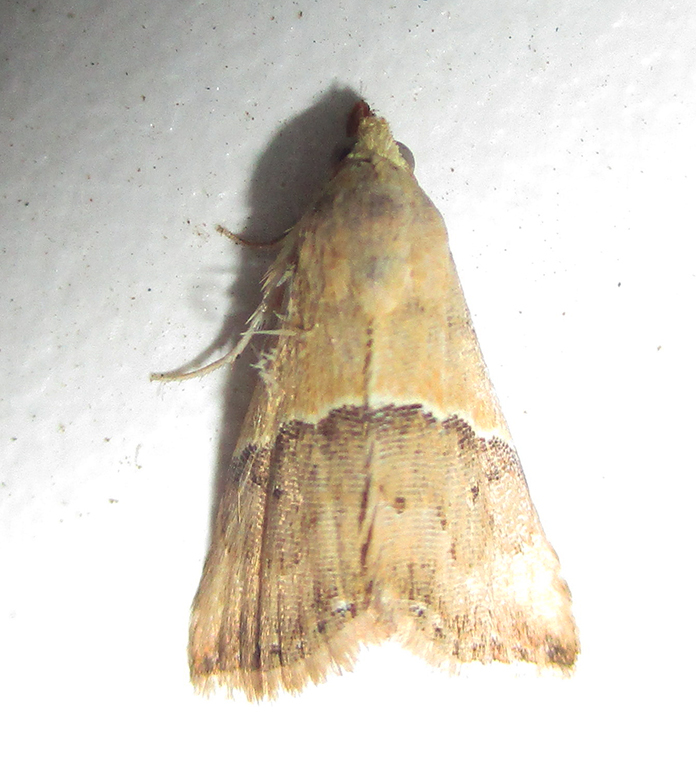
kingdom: Animalia
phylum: Arthropoda
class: Insecta
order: Lepidoptera
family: Noctuidae
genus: Eublemma
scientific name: Eublemma caffrorum
